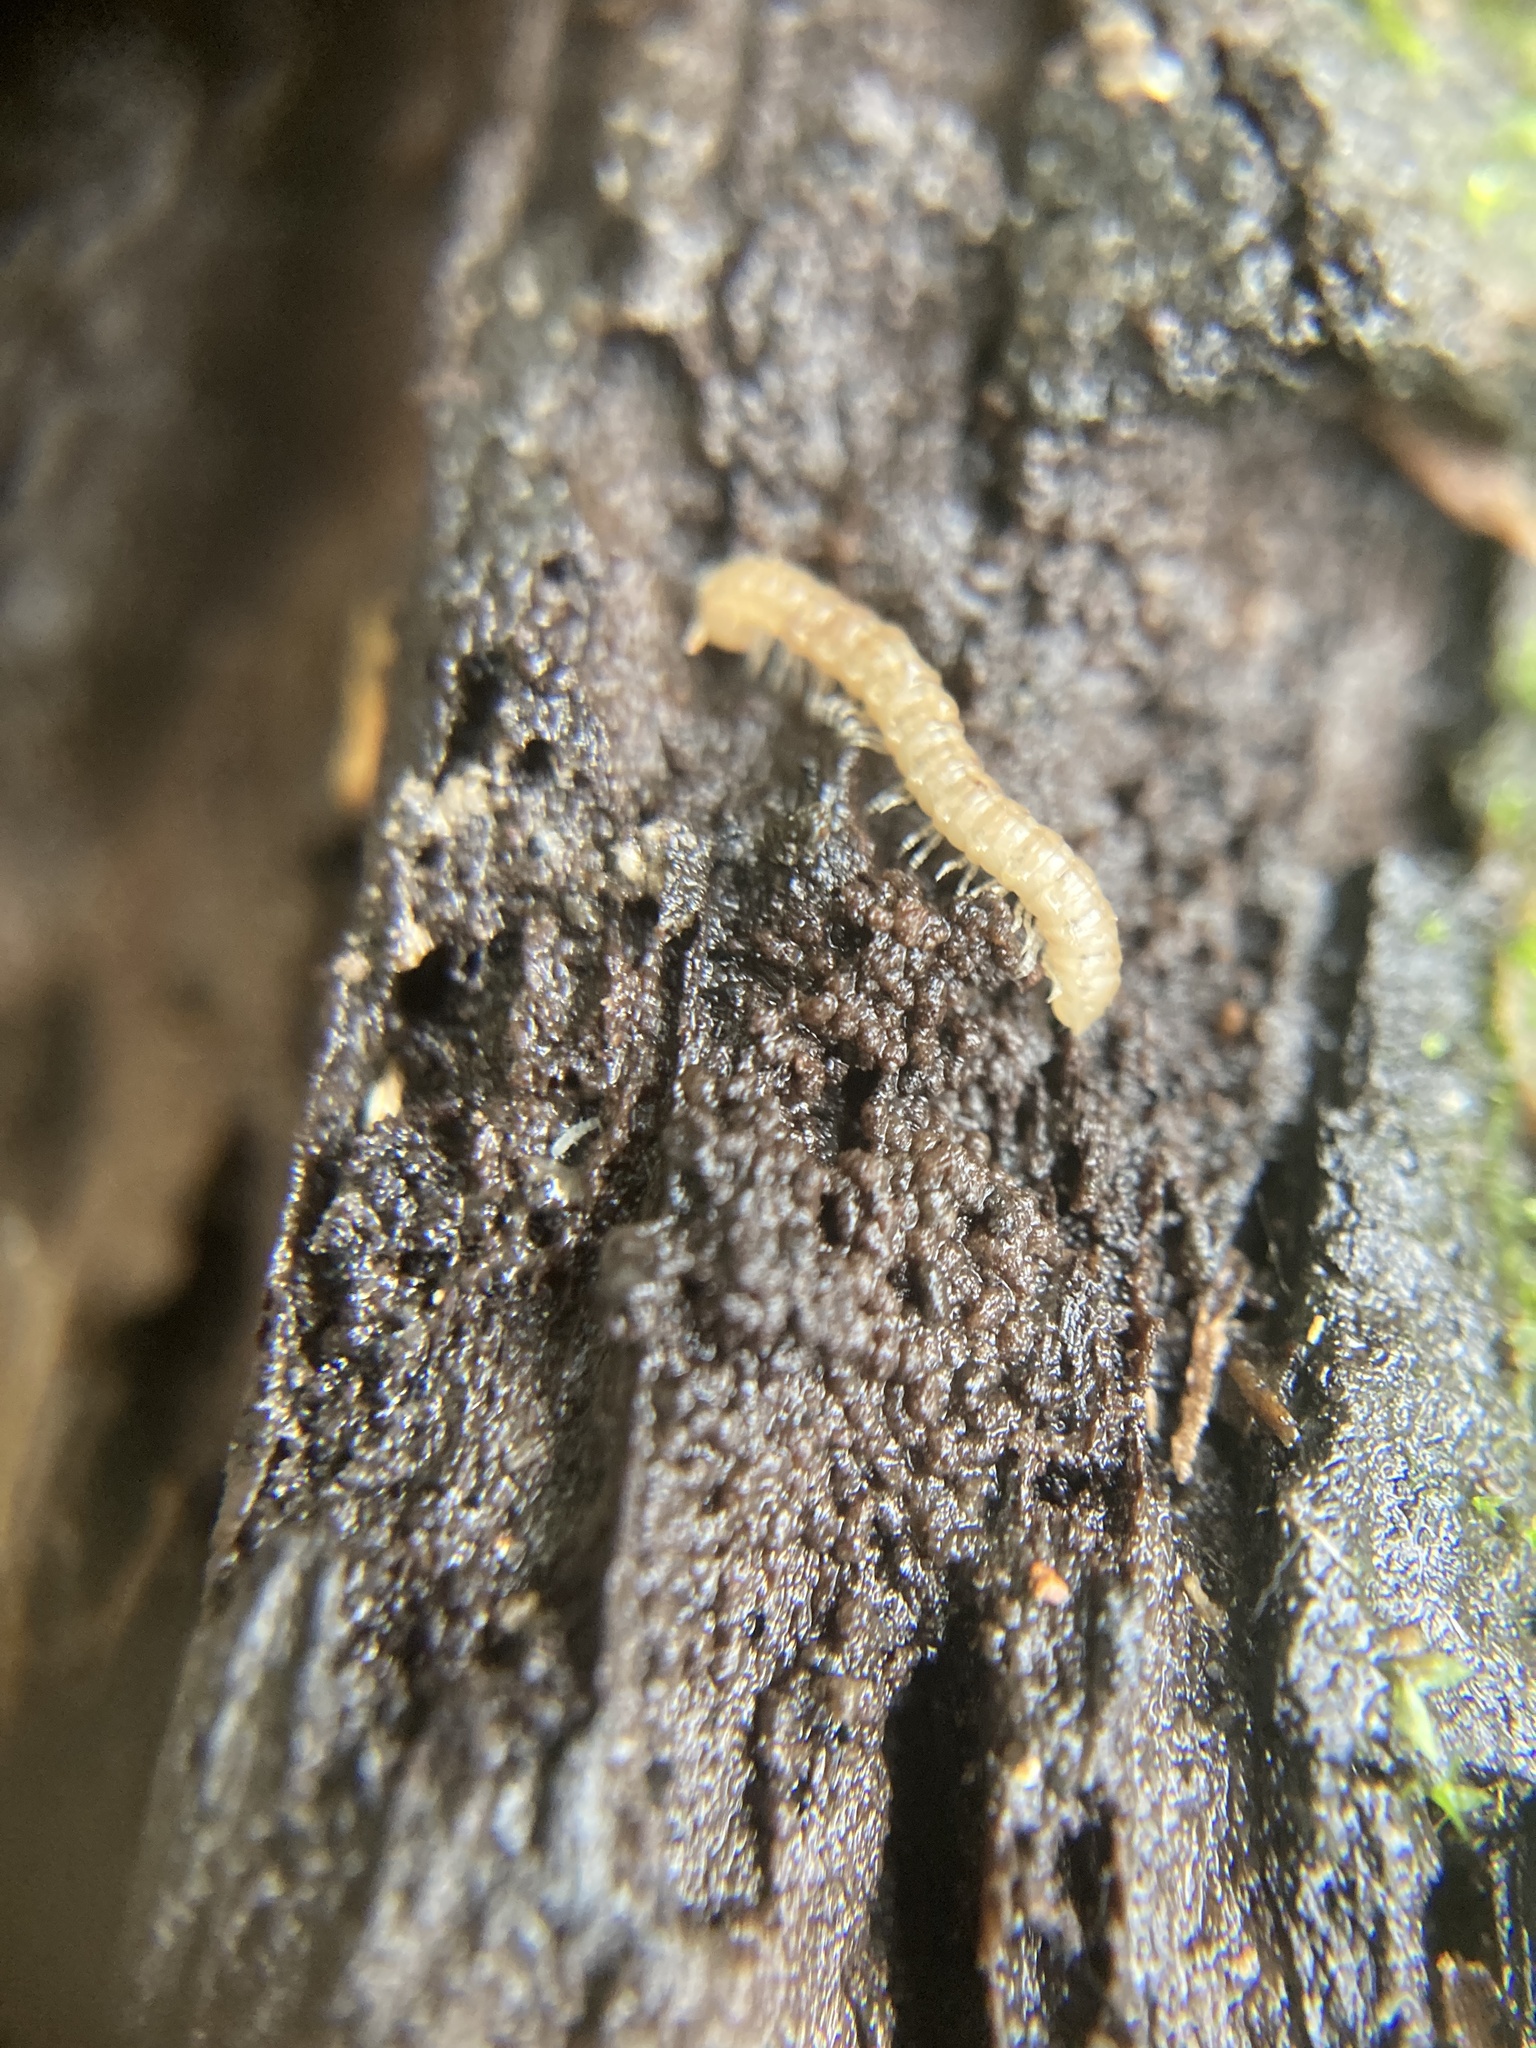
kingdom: Animalia
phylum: Arthropoda
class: Diplopoda
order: Polydesmida
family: Paradoxosomatidae
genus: Oxidus
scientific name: Oxidus gracilis
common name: Greenhouse millipede
